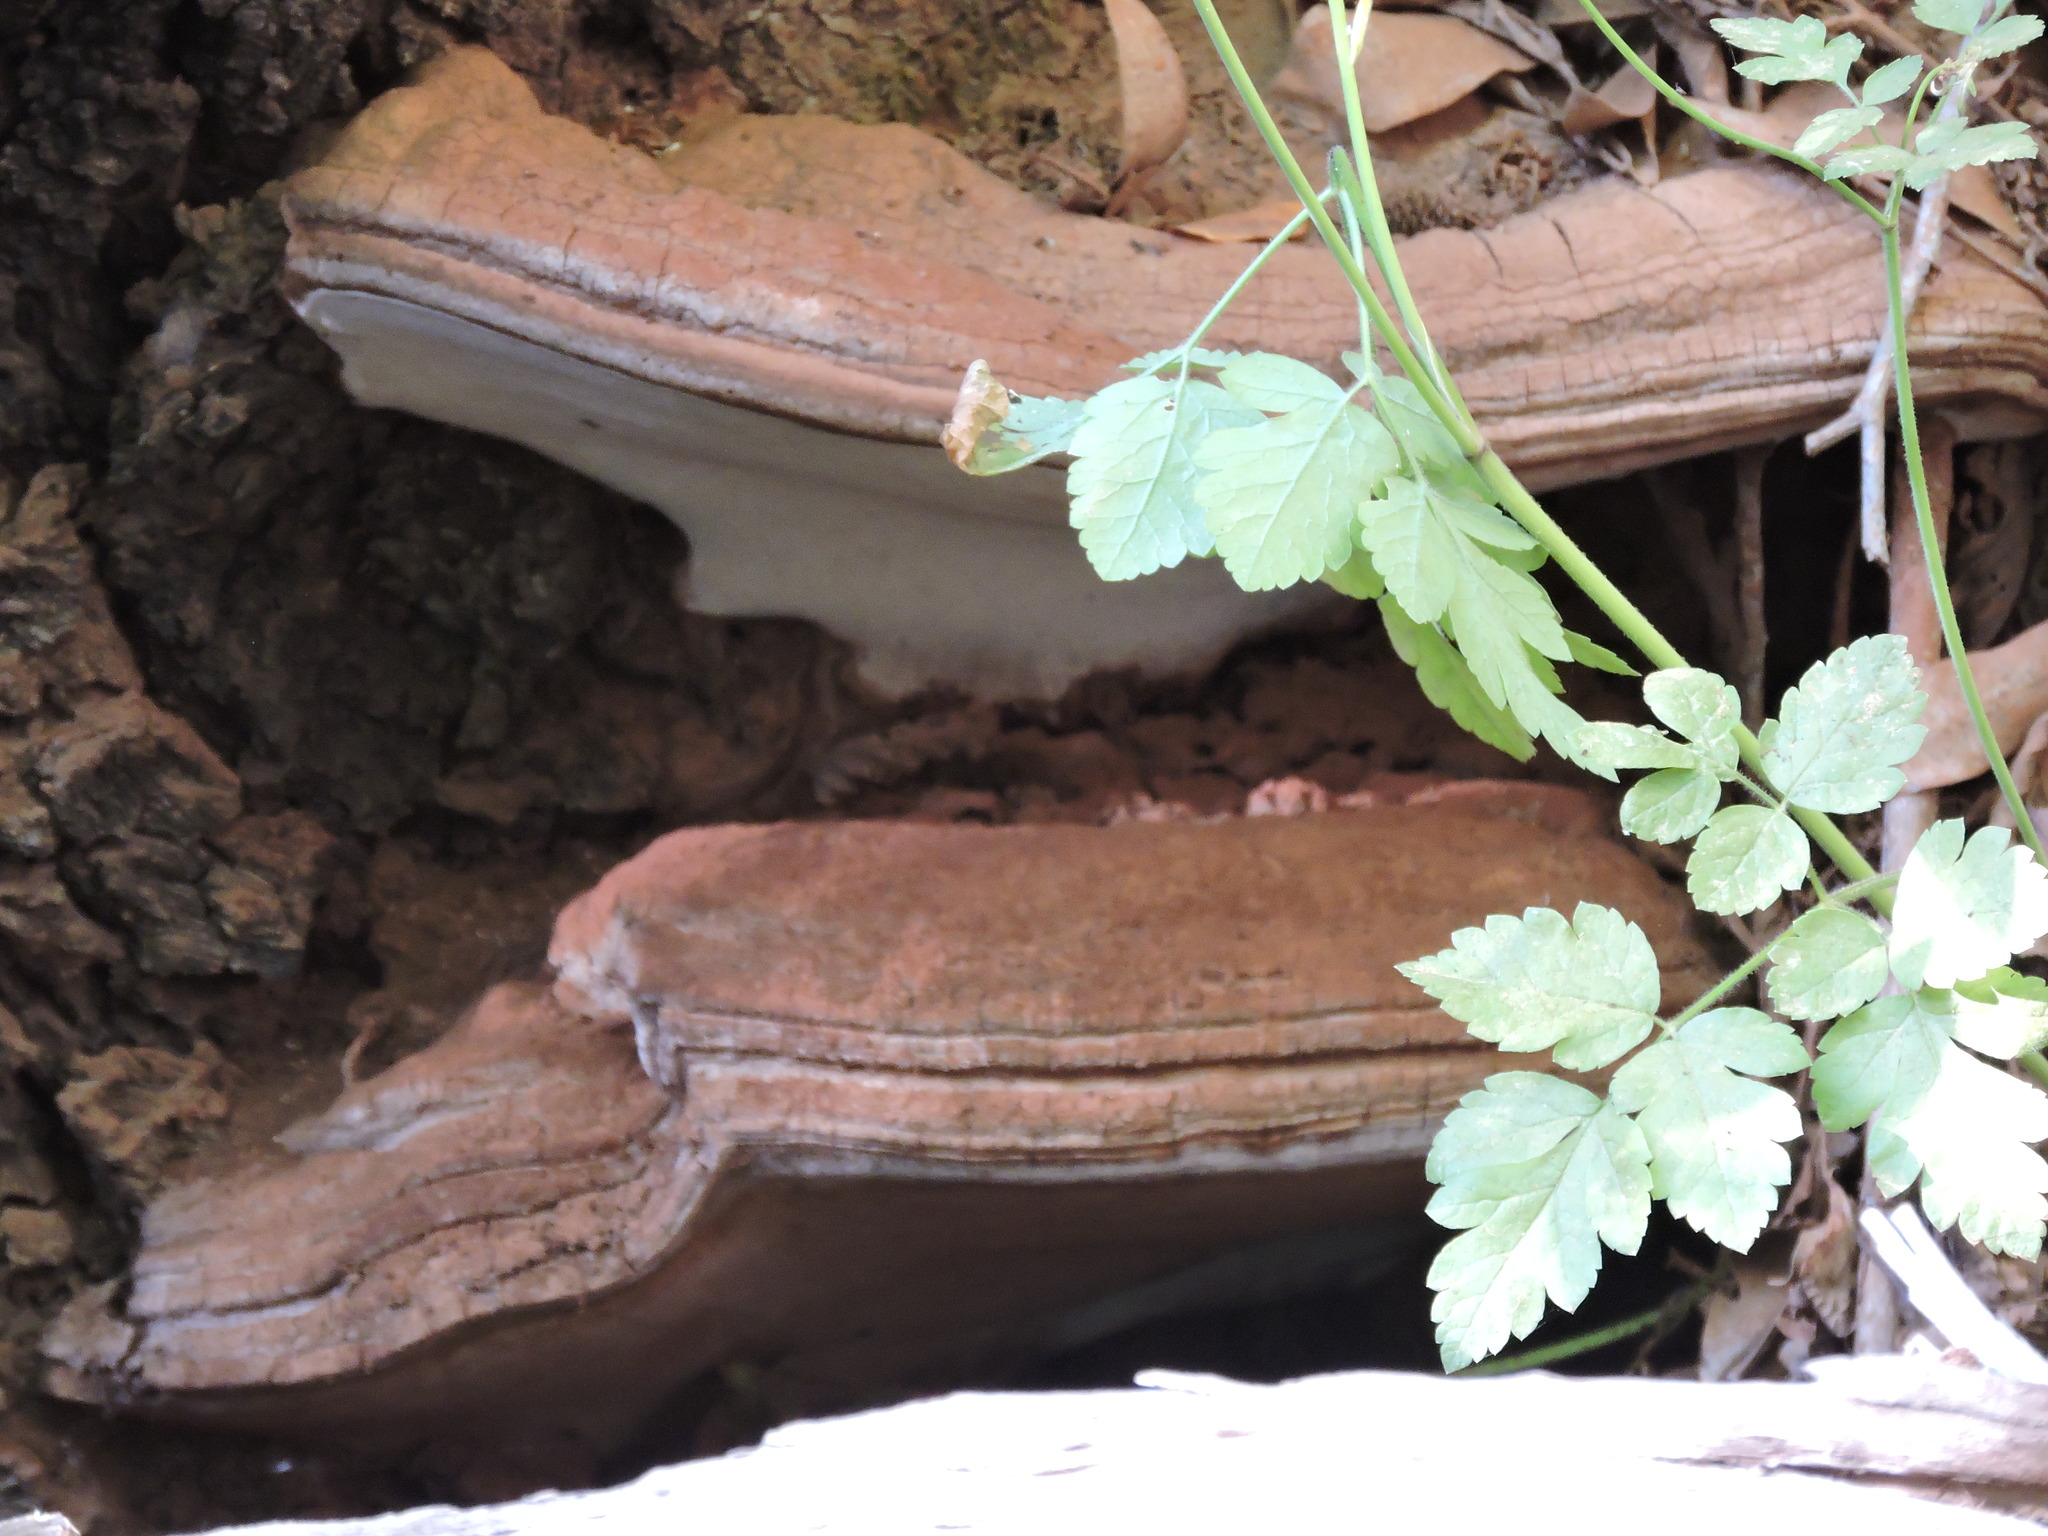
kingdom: Fungi
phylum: Basidiomycota
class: Agaricomycetes
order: Polyporales
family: Polyporaceae
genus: Ganoderma
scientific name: Ganoderma brownii
